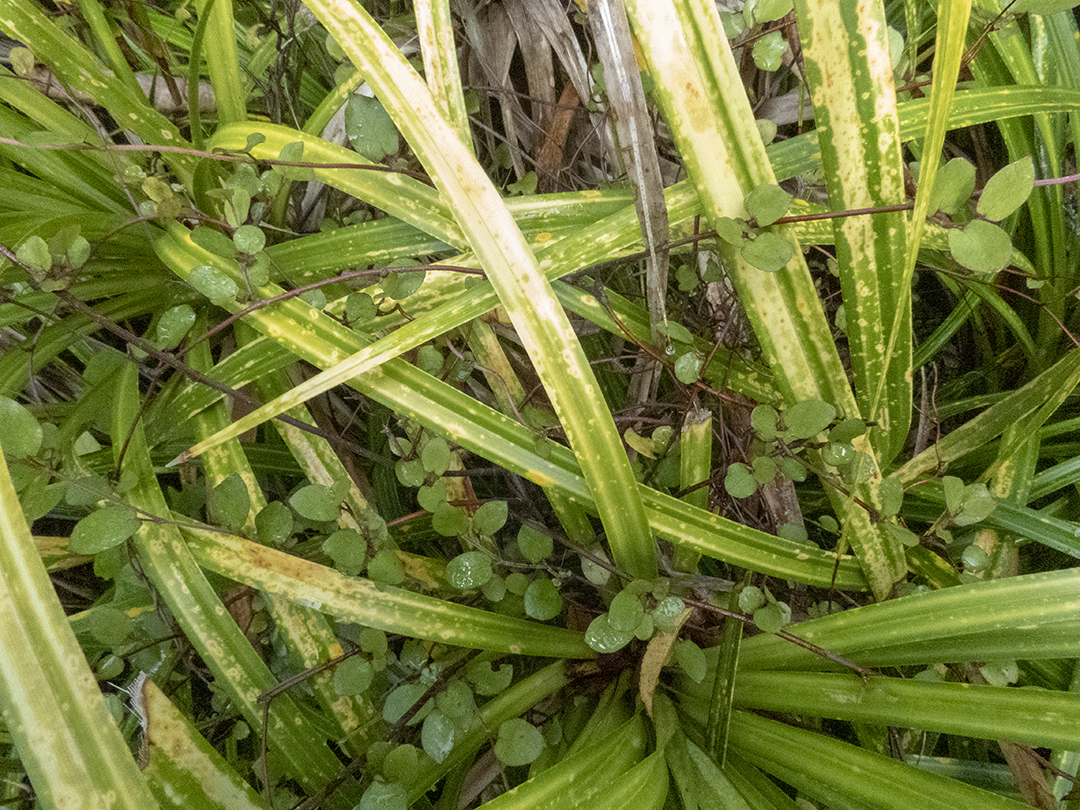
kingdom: Plantae
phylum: Tracheophyta
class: Magnoliopsida
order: Caryophyllales
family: Polygonaceae
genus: Muehlenbeckia
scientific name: Muehlenbeckia complexa
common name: Wireplant
